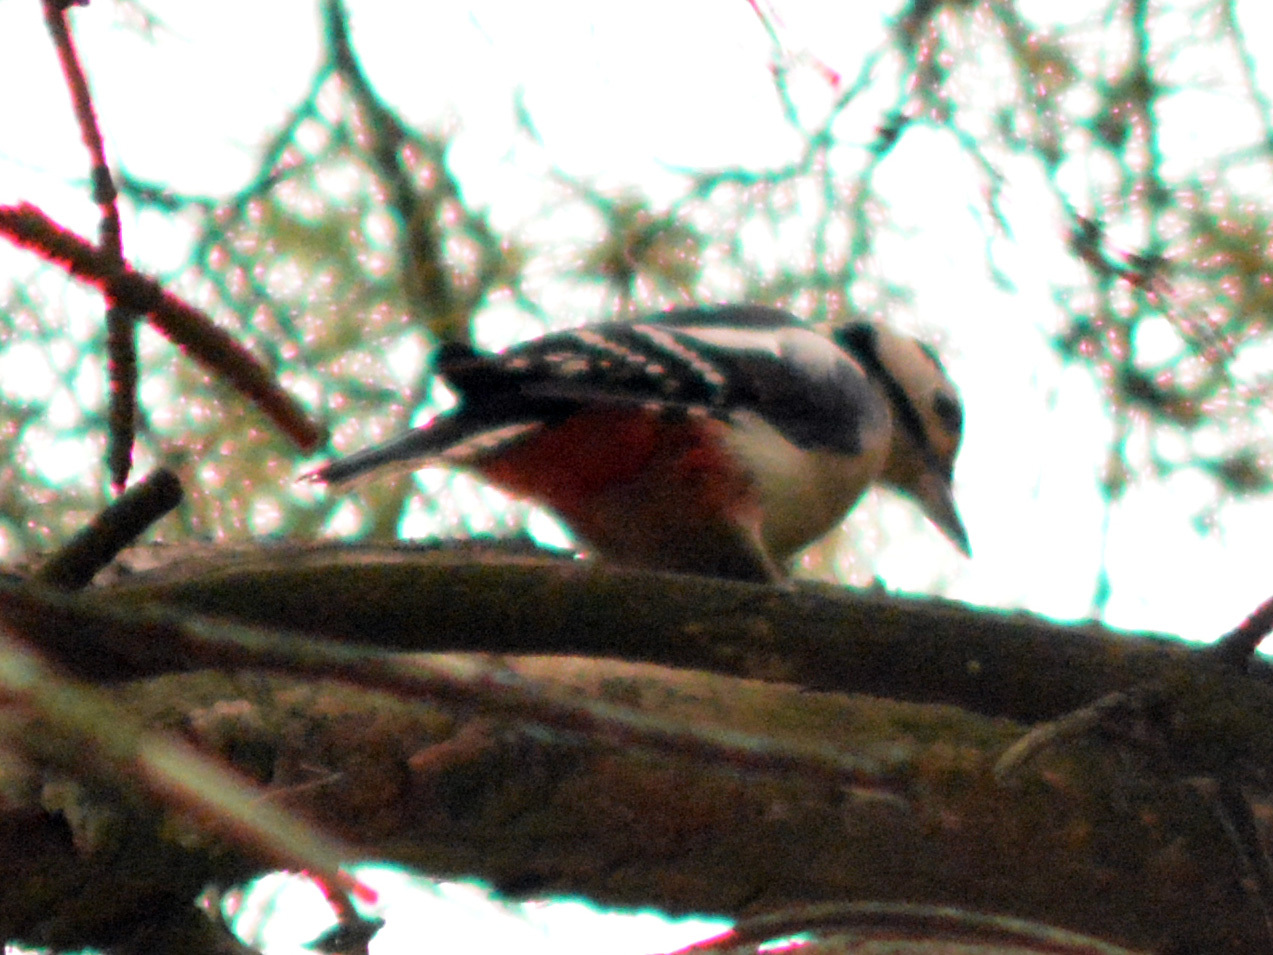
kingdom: Animalia
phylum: Chordata
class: Aves
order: Piciformes
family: Picidae
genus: Dendrocopos
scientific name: Dendrocopos major
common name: Great spotted woodpecker
